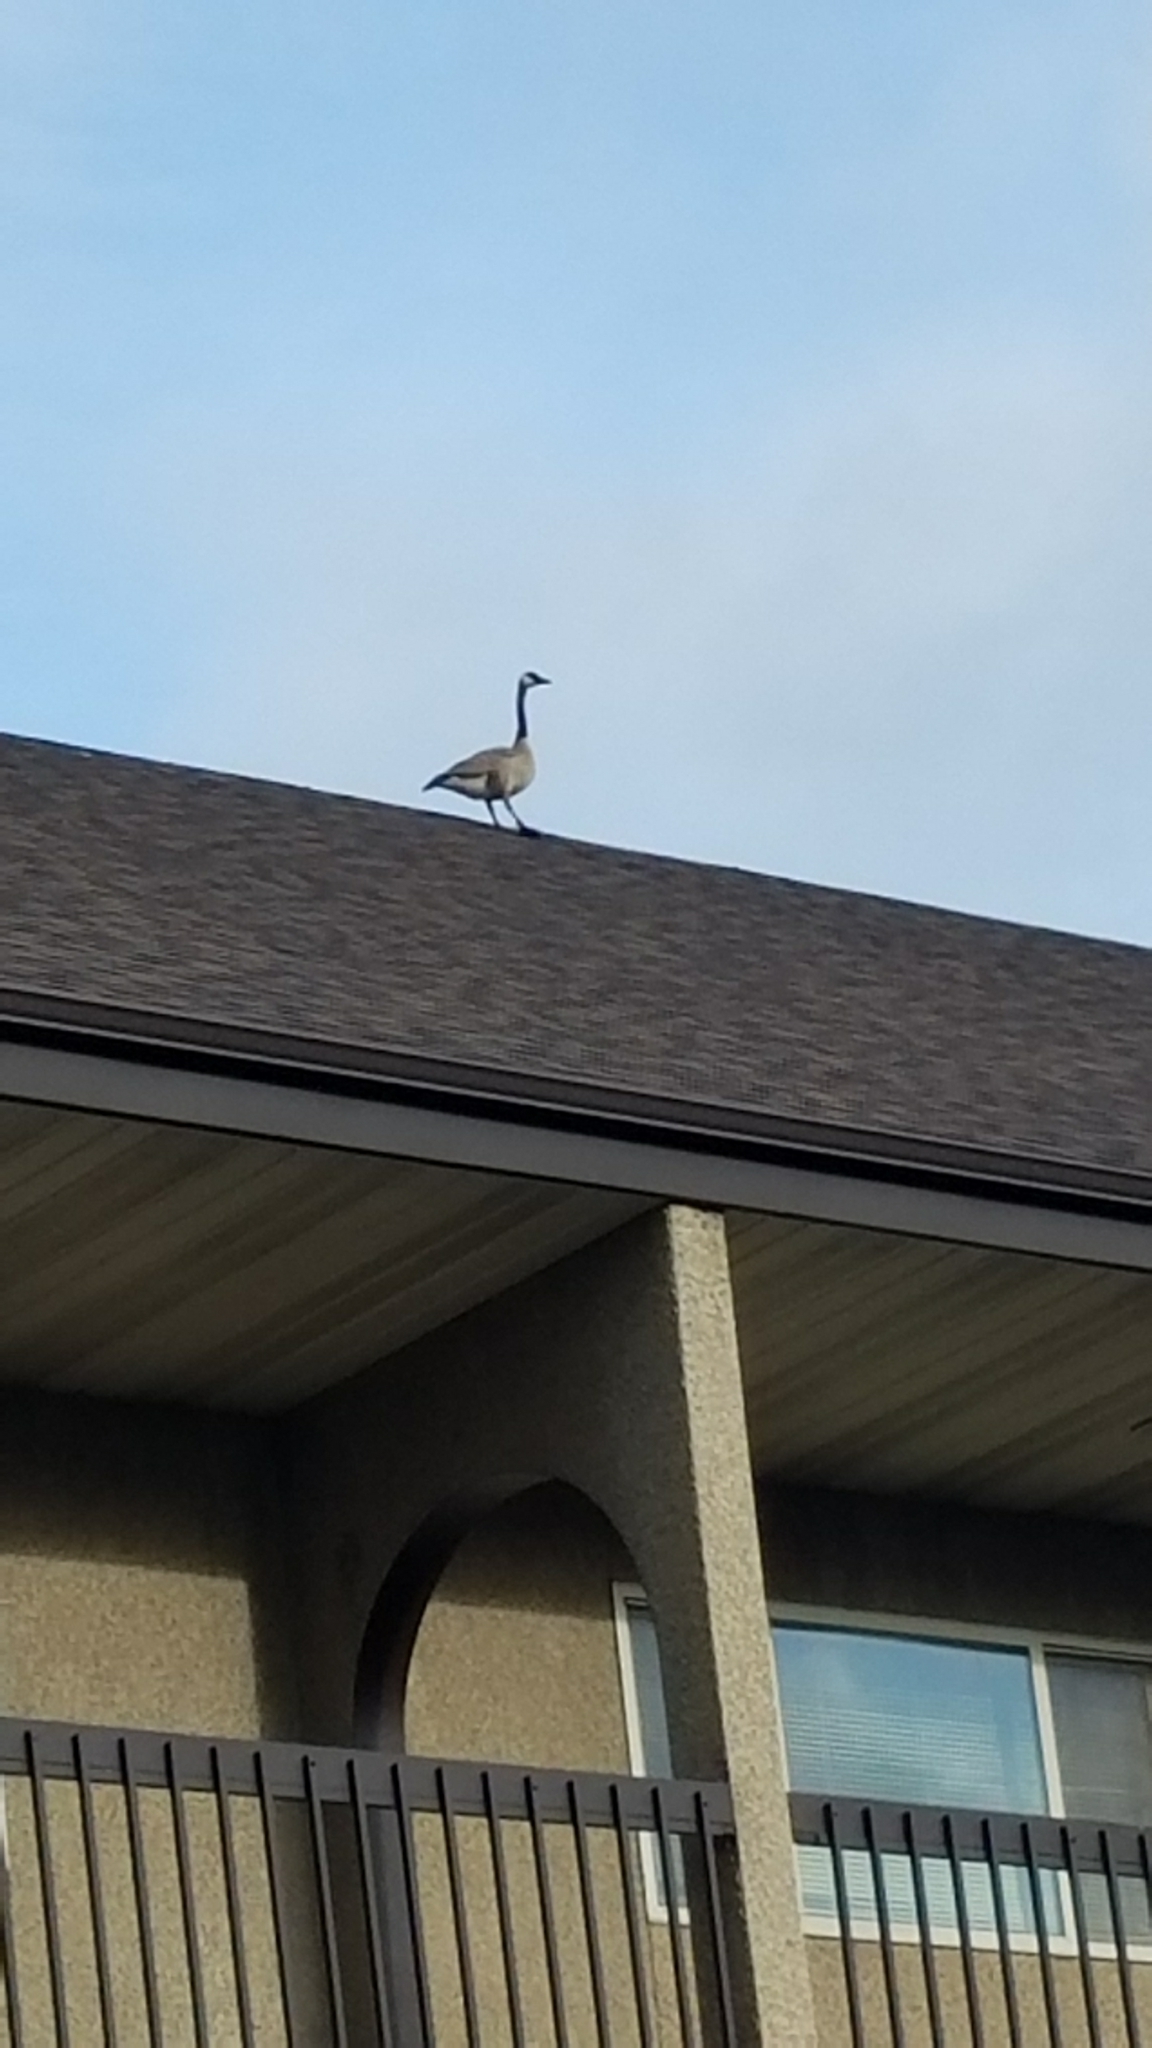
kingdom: Animalia
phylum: Chordata
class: Aves
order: Anseriformes
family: Anatidae
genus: Branta
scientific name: Branta canadensis
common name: Canada goose
